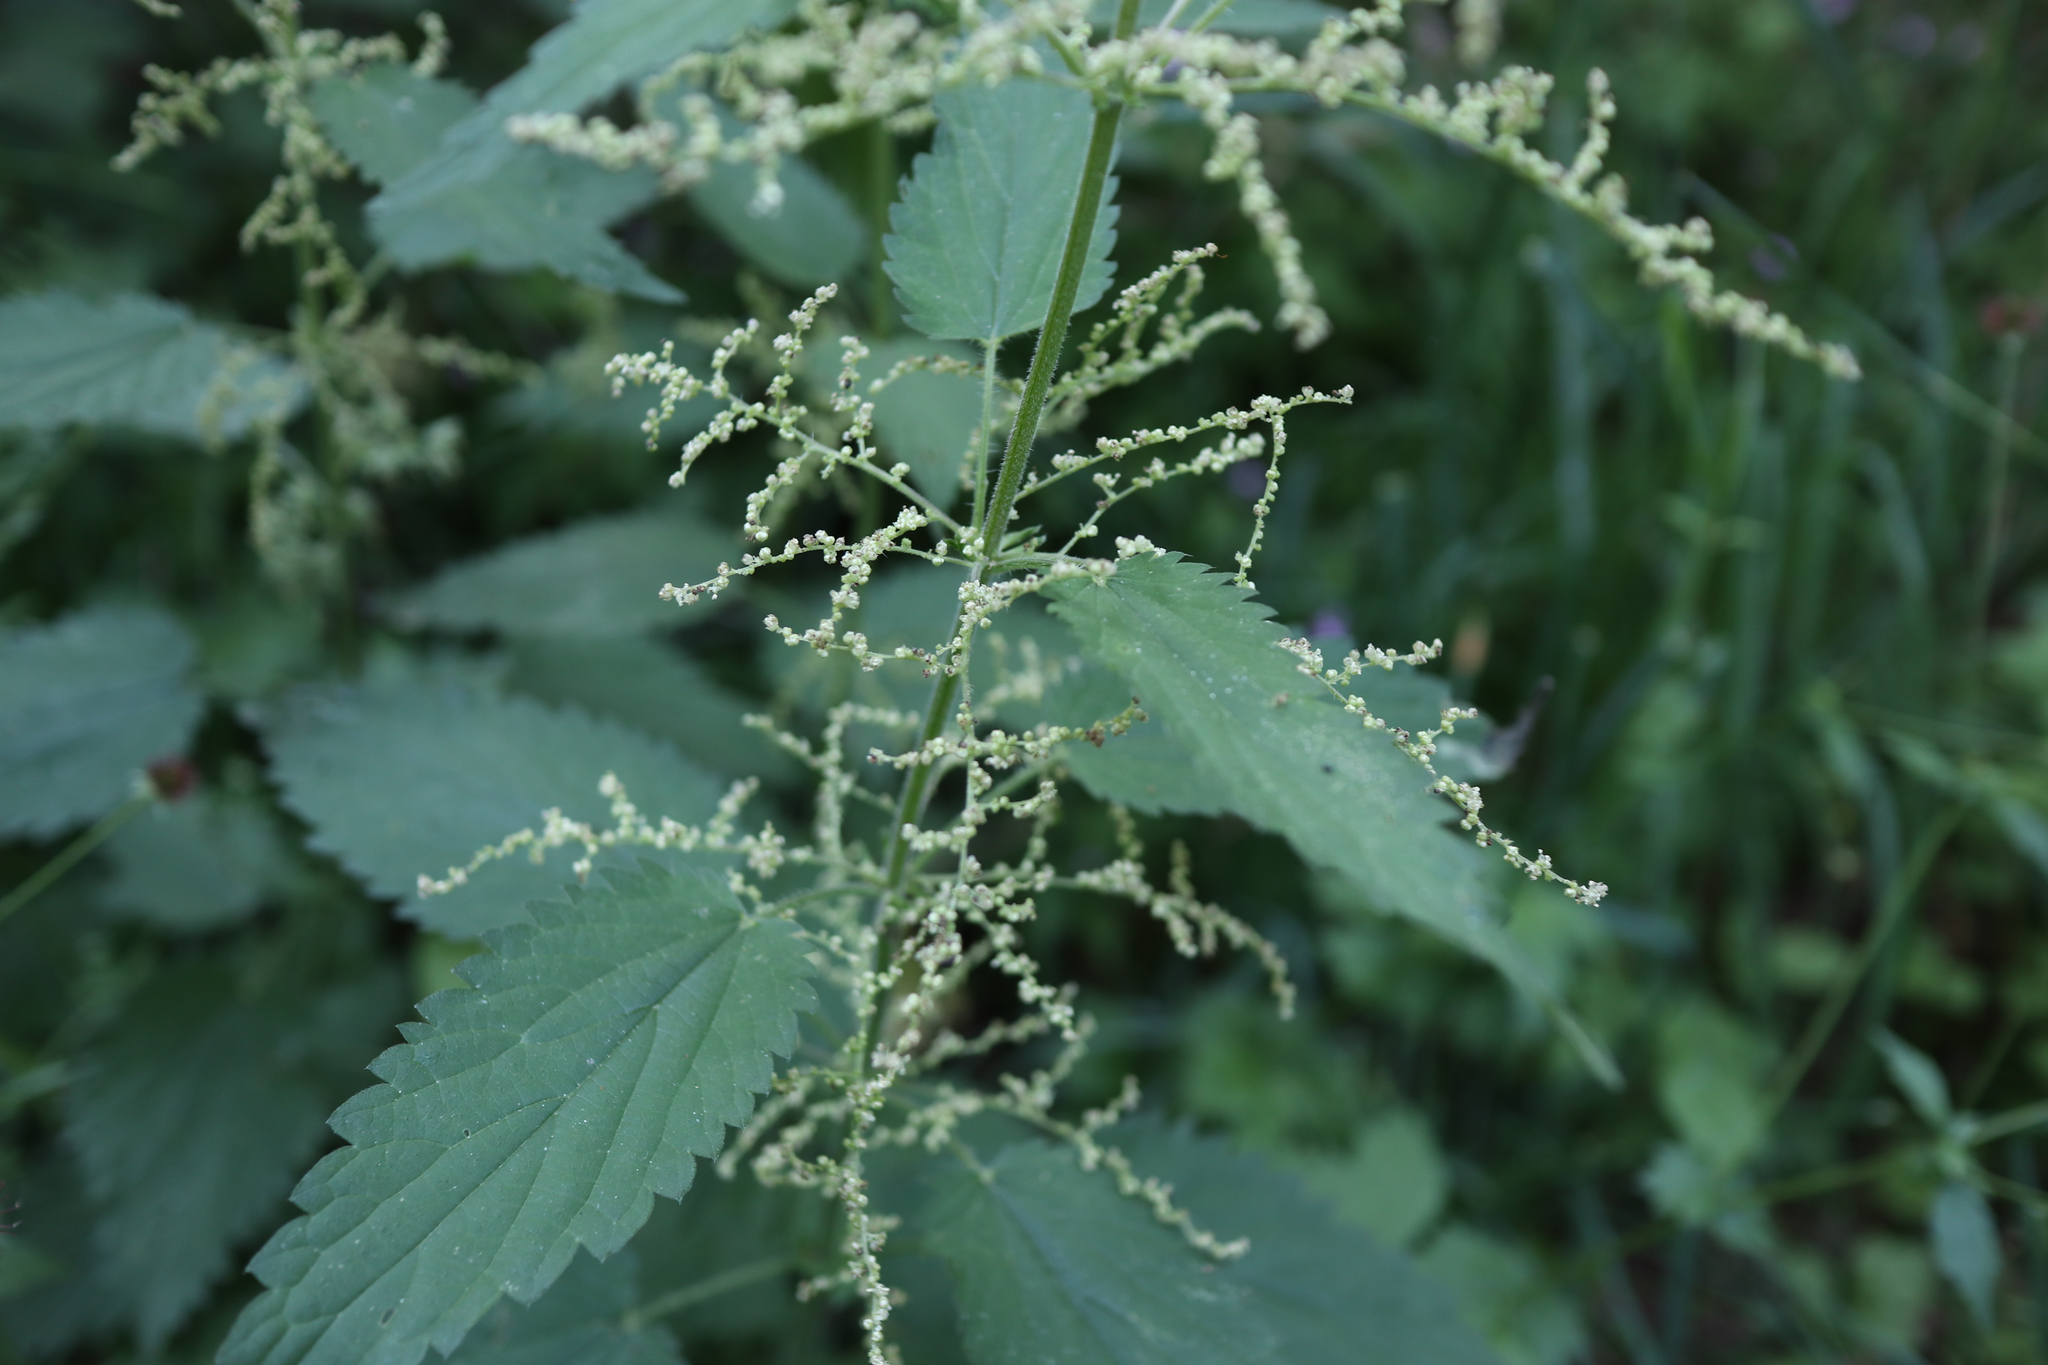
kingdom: Plantae
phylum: Tracheophyta
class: Magnoliopsida
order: Rosales
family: Urticaceae
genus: Urtica
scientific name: Urtica dioica
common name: Common nettle
